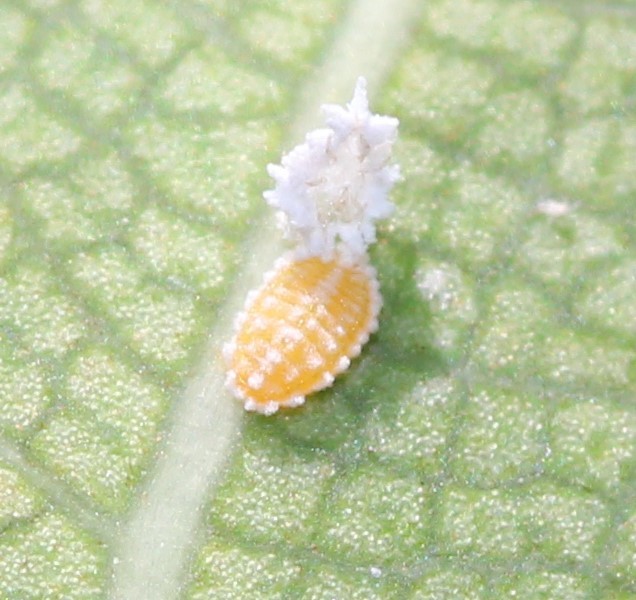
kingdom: Animalia
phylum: Arthropoda
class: Insecta
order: Hemiptera
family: Pseudococcidae
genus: Nipaecoccus
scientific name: Nipaecoccus nipae
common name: Kentia mealybug
